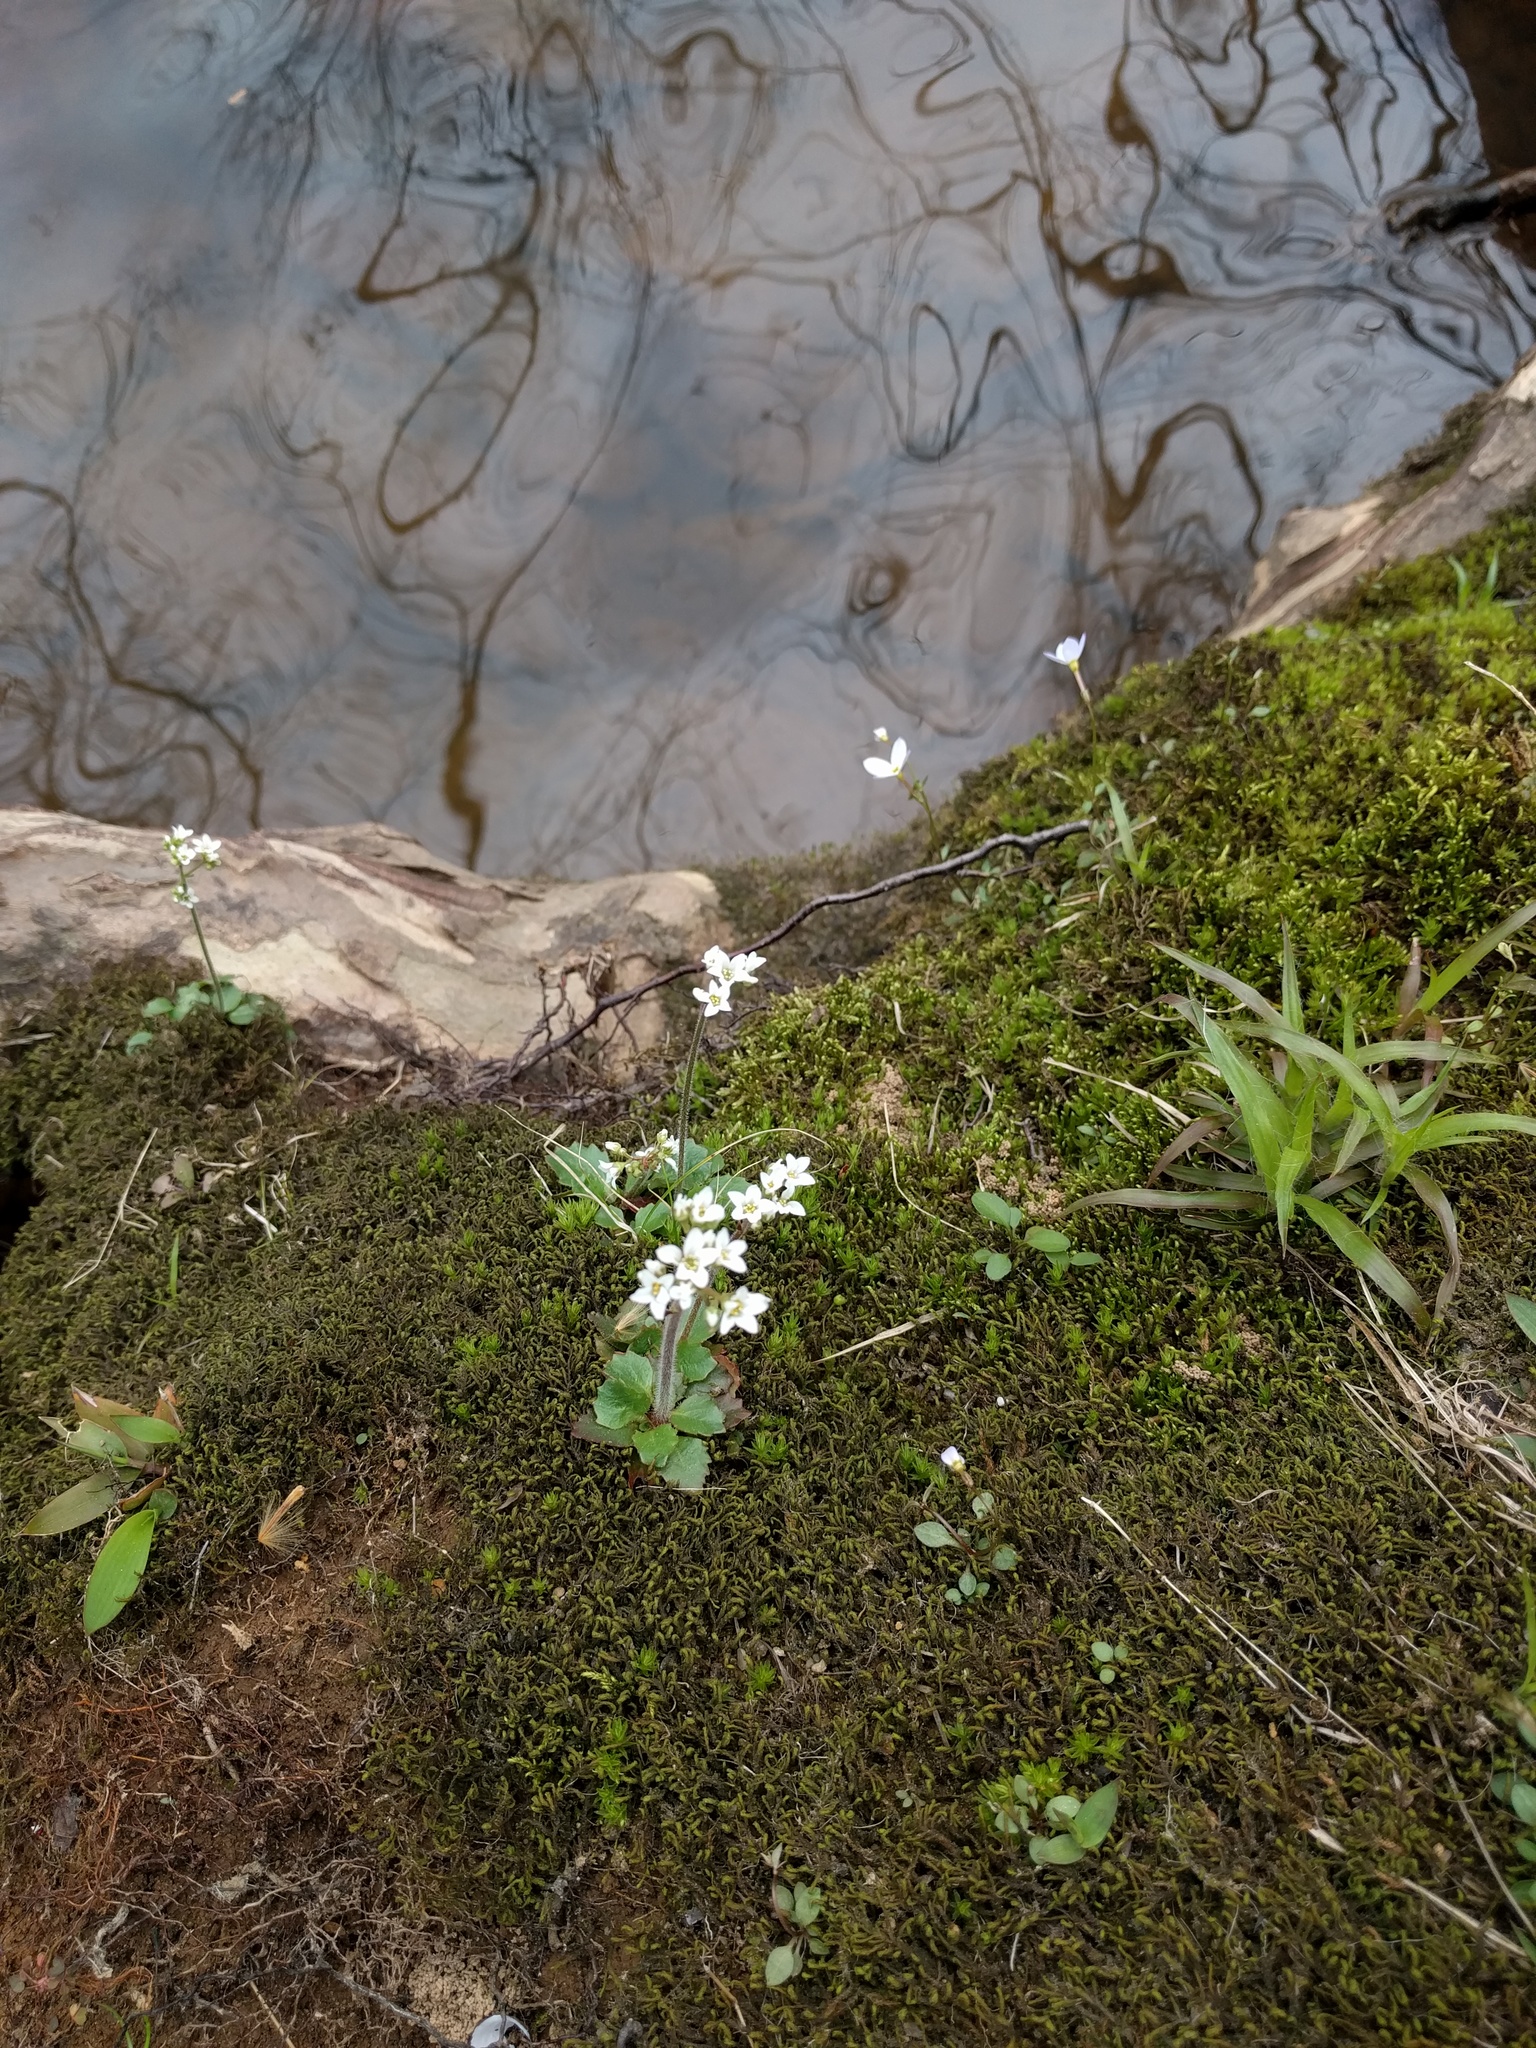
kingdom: Plantae
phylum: Tracheophyta
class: Magnoliopsida
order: Saxifragales
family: Saxifragaceae
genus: Micranthes
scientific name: Micranthes virginiensis
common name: Early saxifrage
